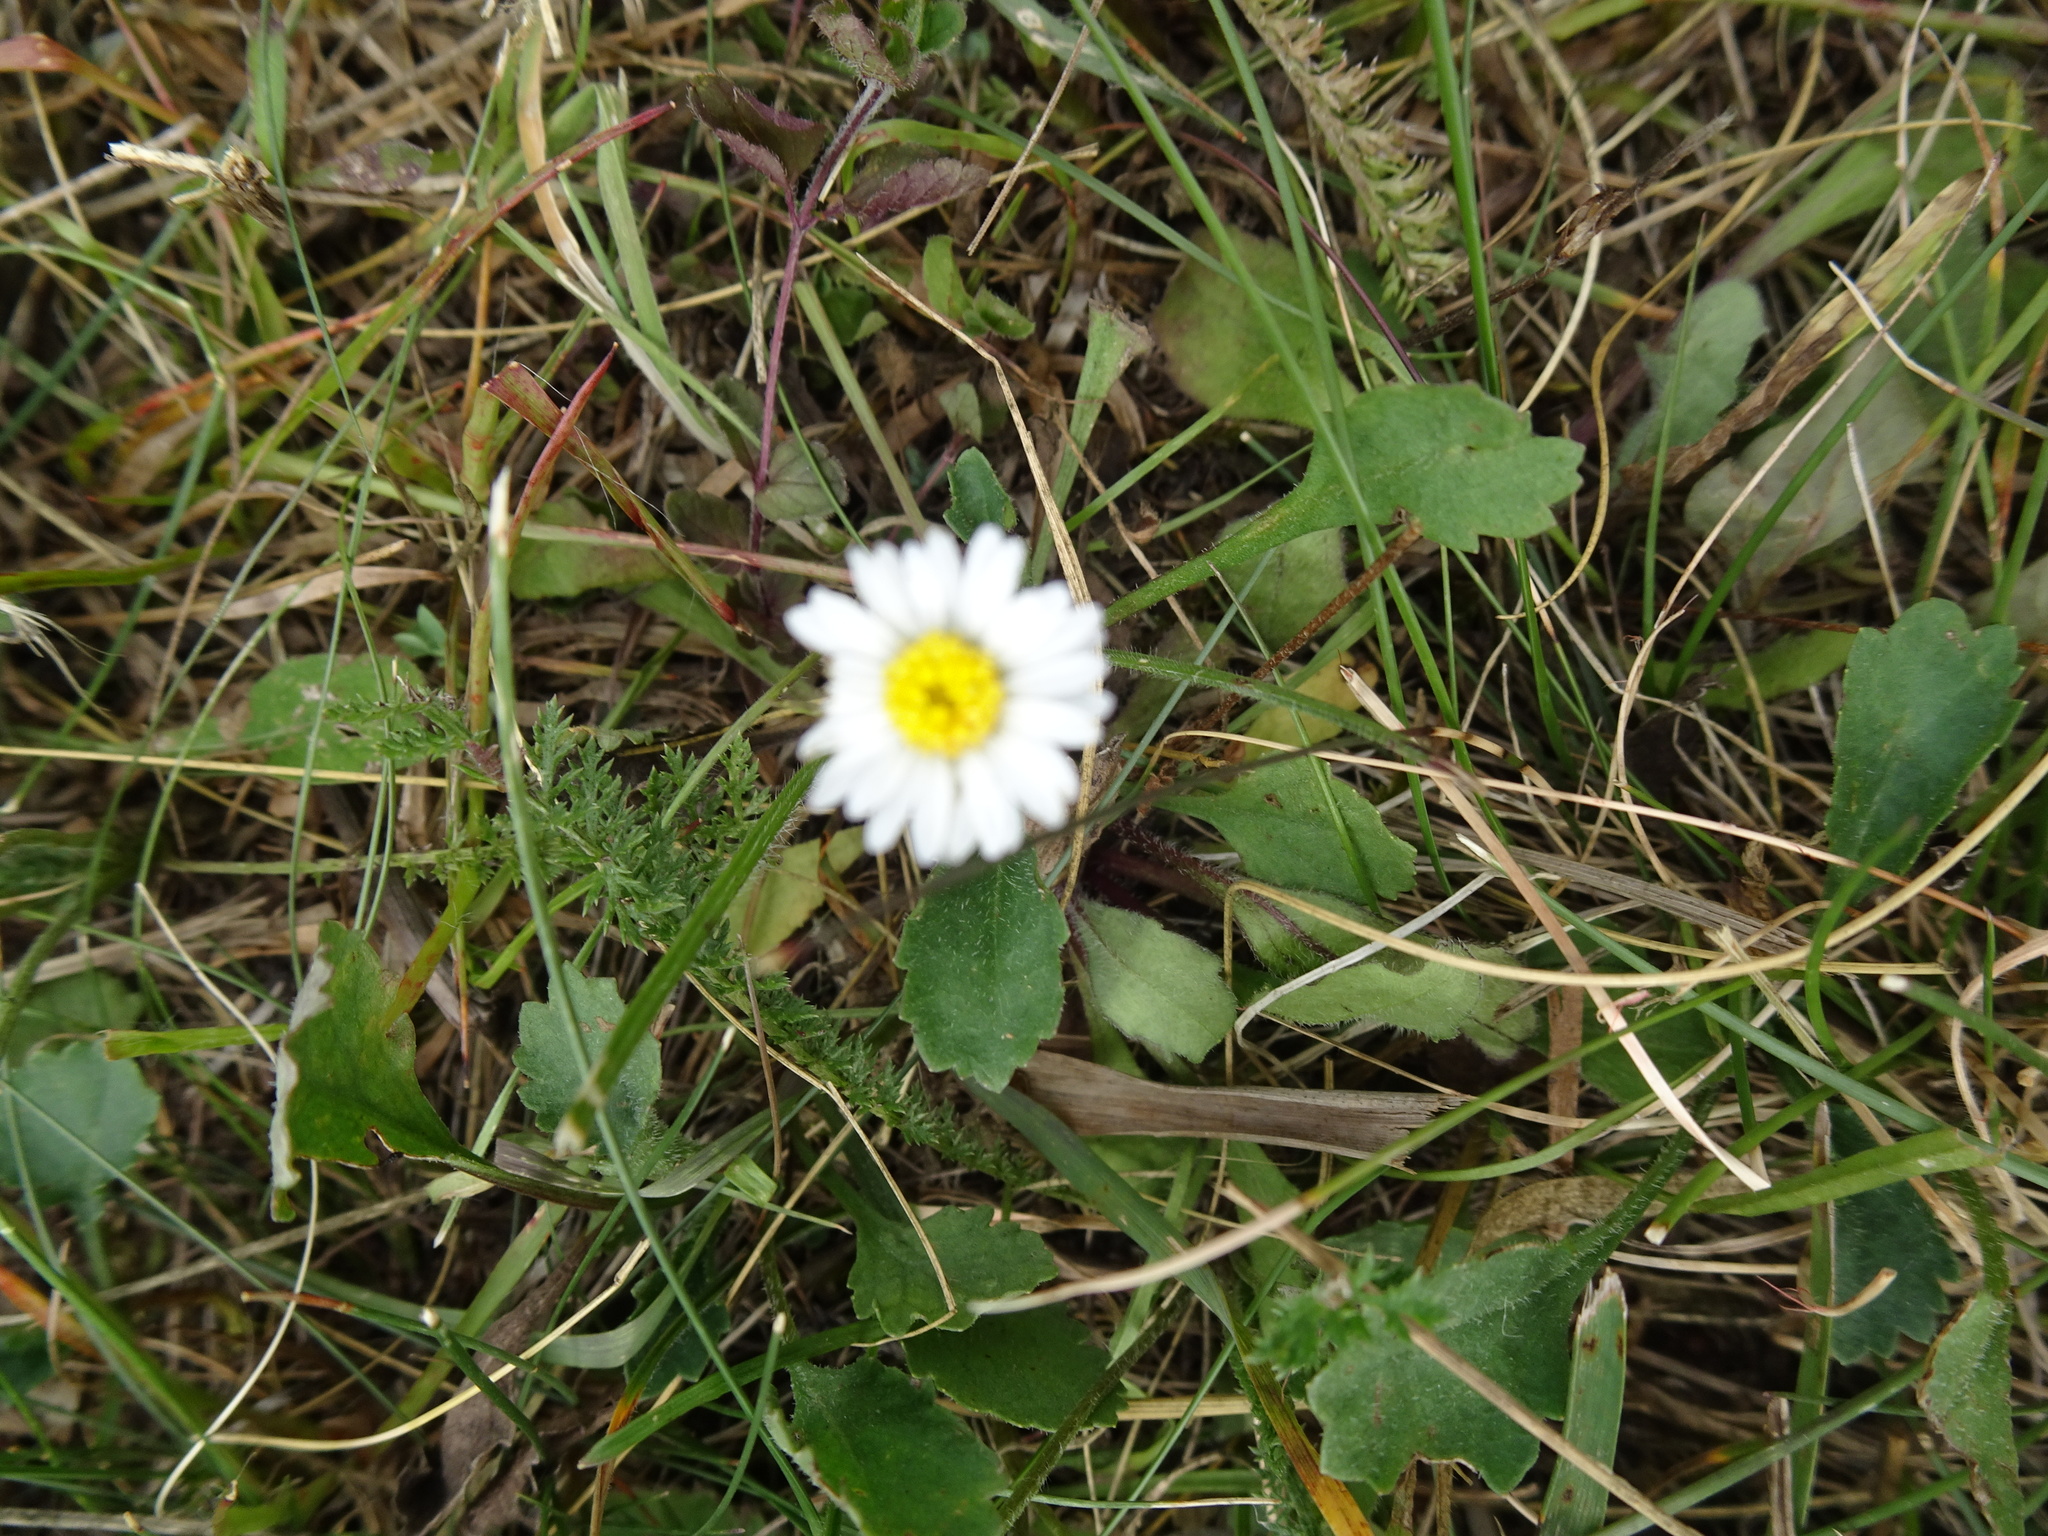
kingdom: Plantae
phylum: Tracheophyta
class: Magnoliopsida
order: Asterales
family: Asteraceae
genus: Bellis
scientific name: Bellis perennis
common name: Lawndaisy
